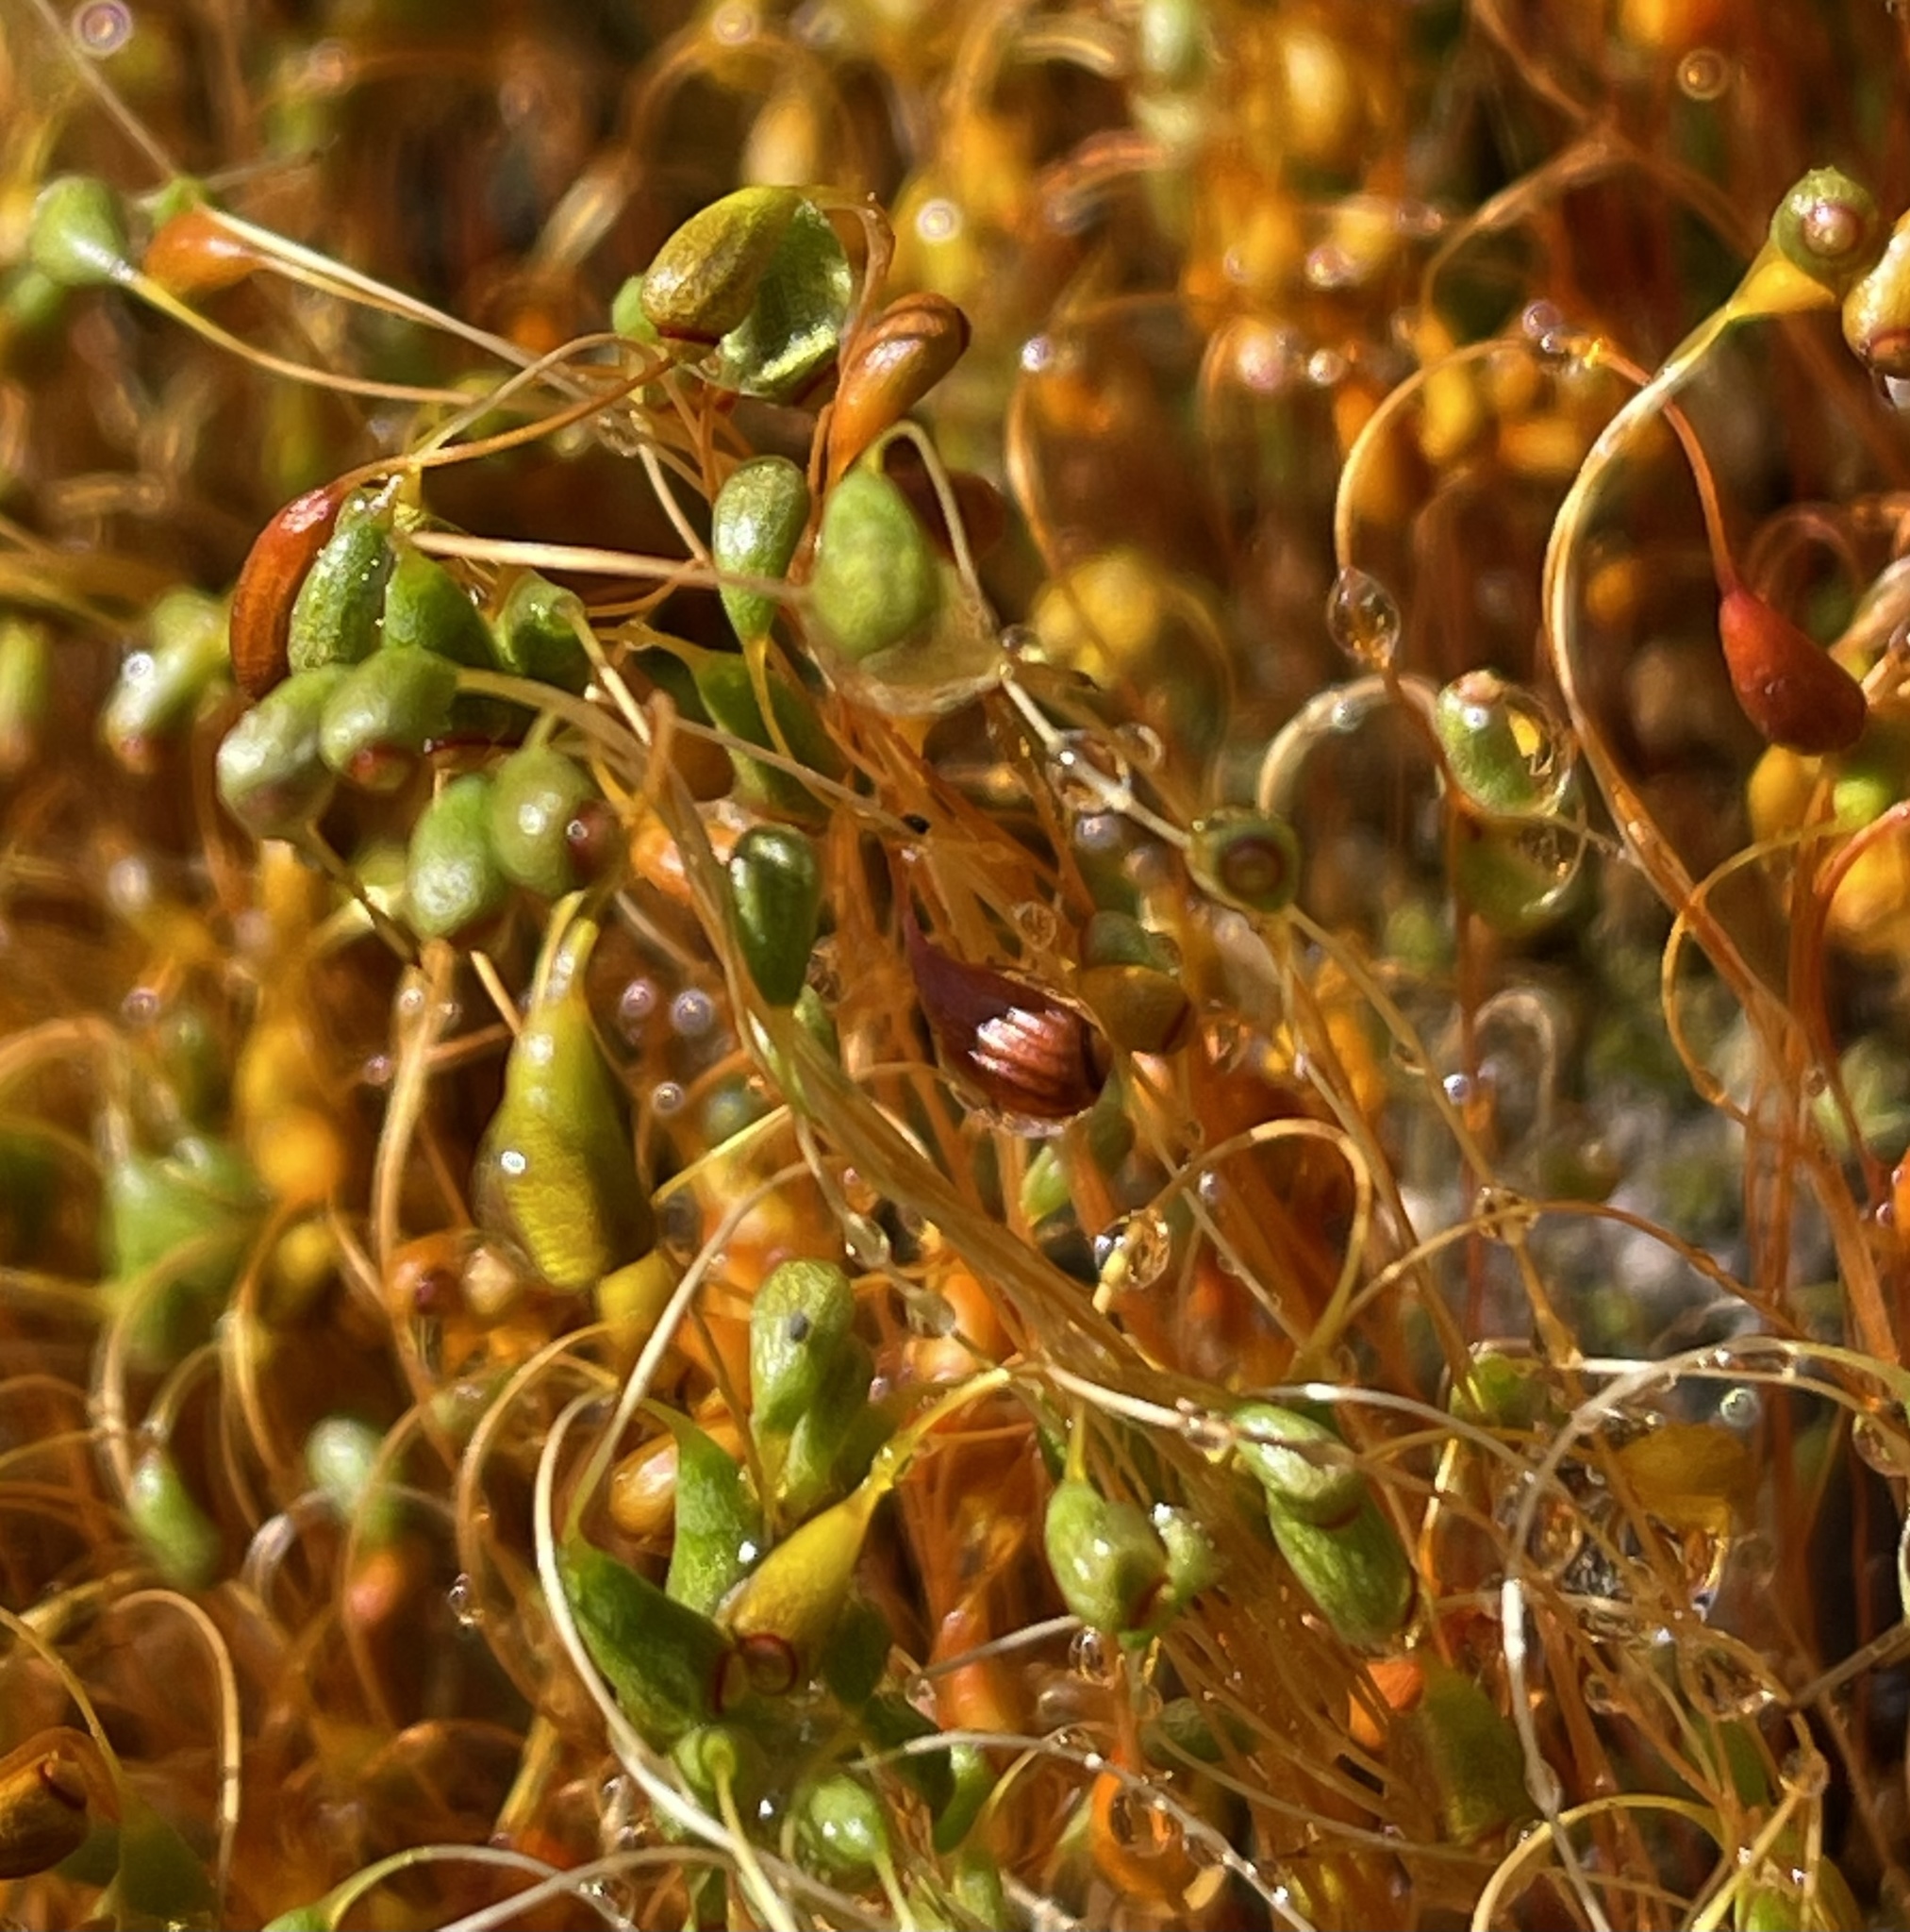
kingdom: Plantae
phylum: Bryophyta
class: Bryopsida
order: Funariales
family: Funariaceae
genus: Funaria
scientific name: Funaria hygrometrica
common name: Common cord moss
